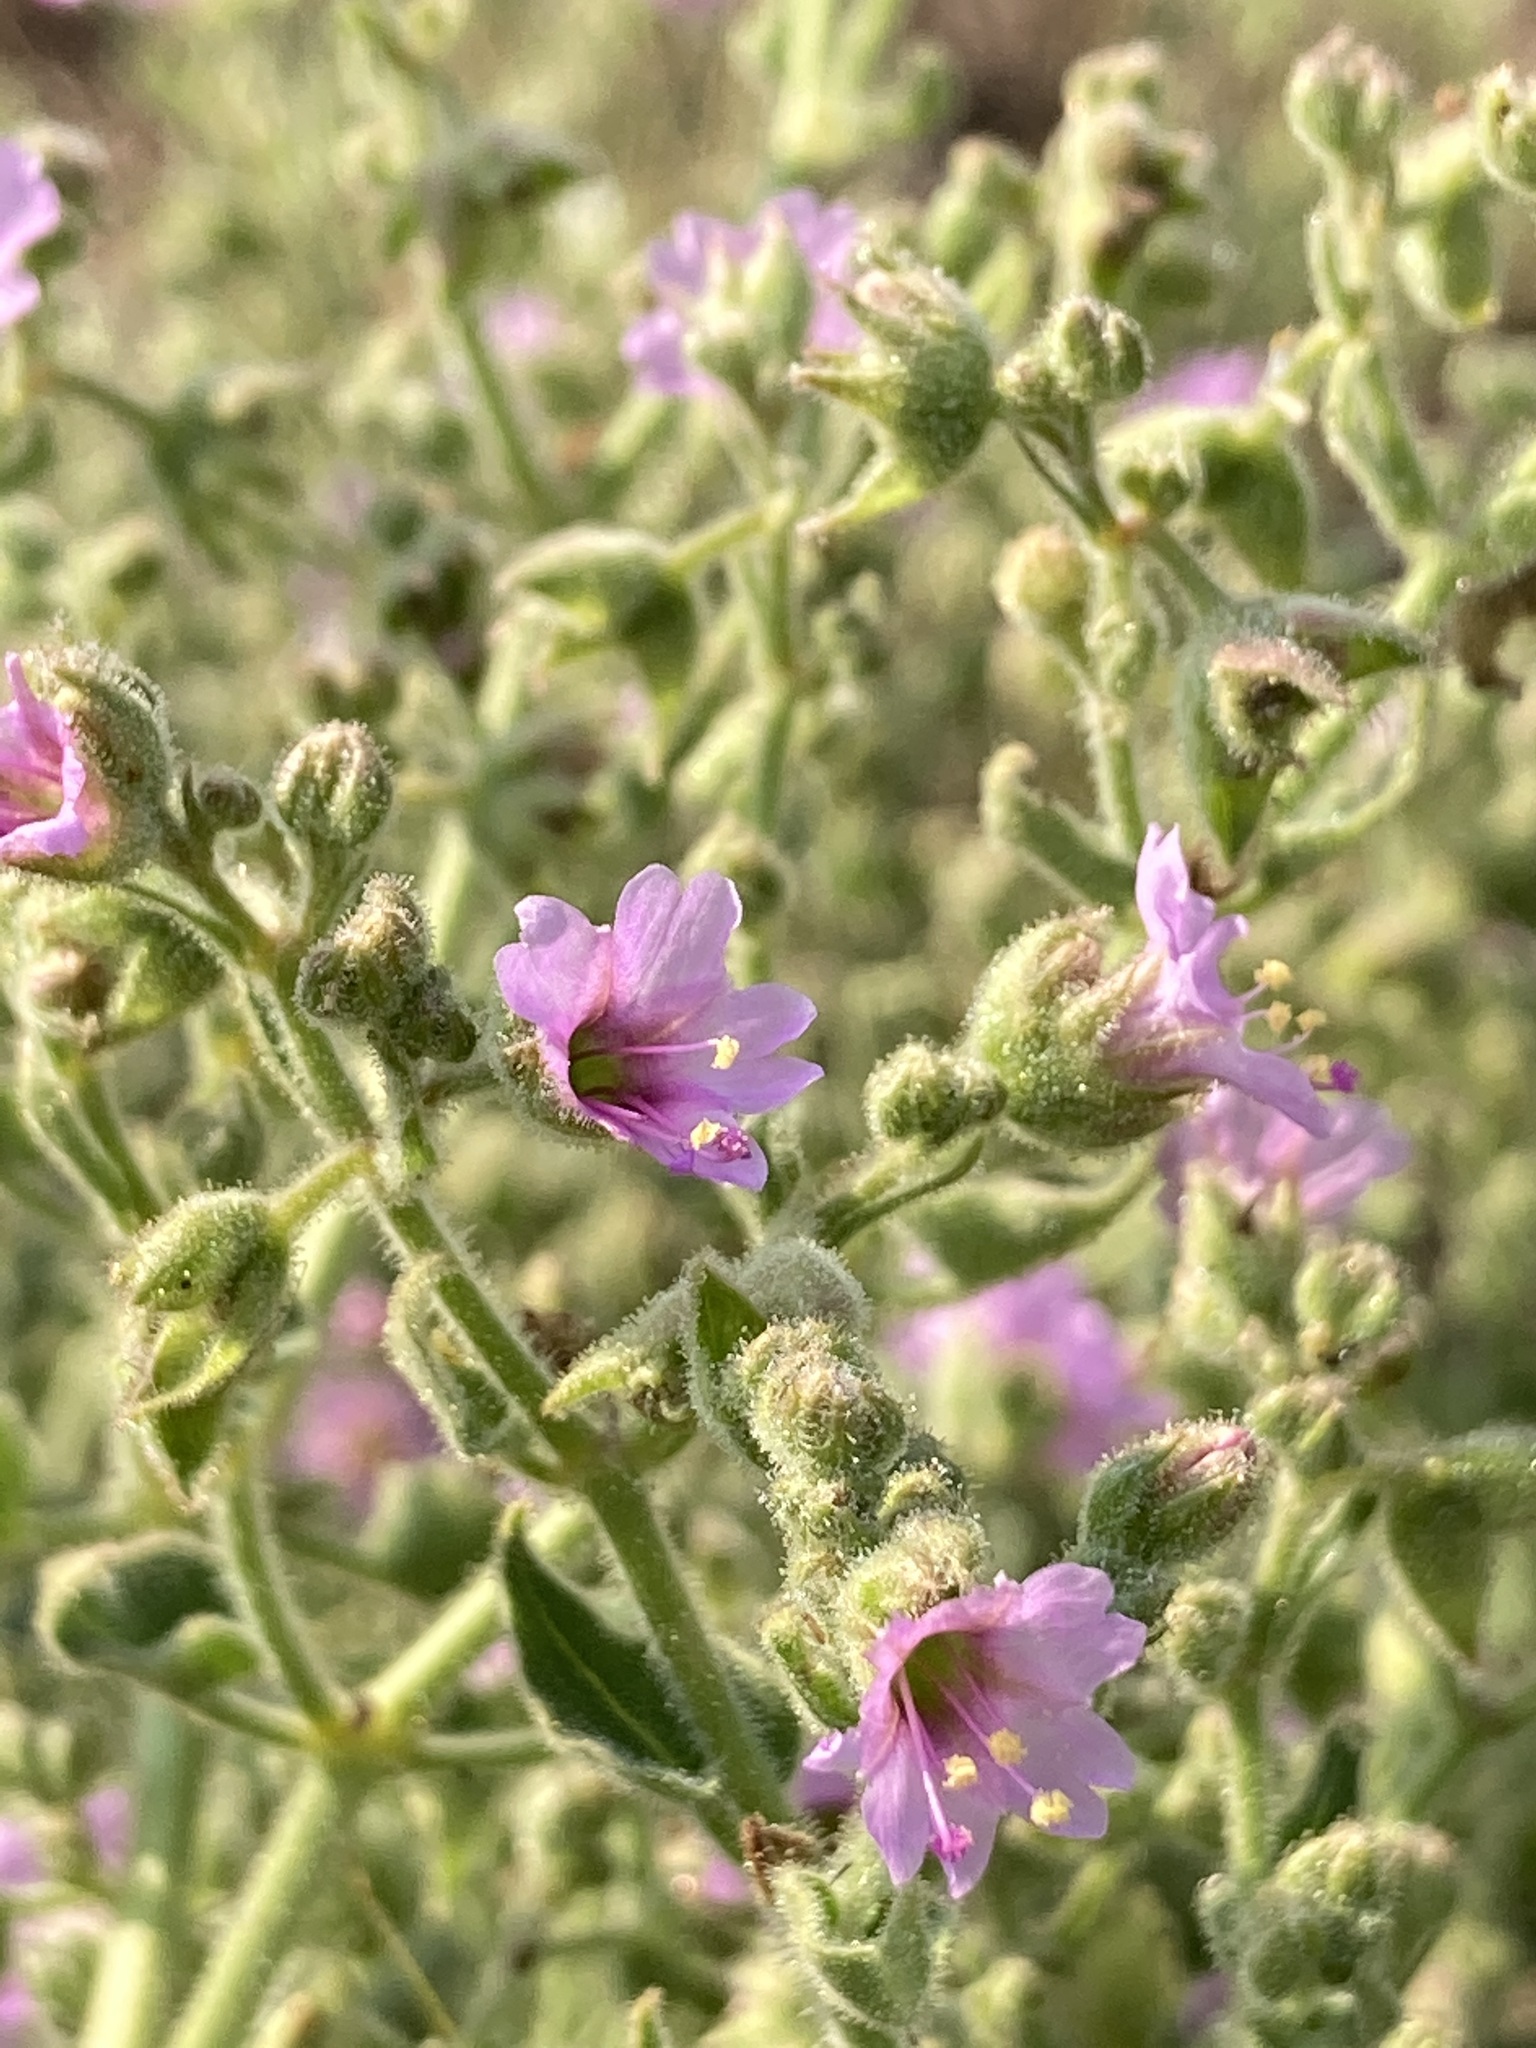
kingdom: Plantae
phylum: Tracheophyta
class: Magnoliopsida
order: Caryophyllales
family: Nyctaginaceae
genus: Mirabilis
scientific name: Mirabilis albida
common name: Hairy four-o'clock
